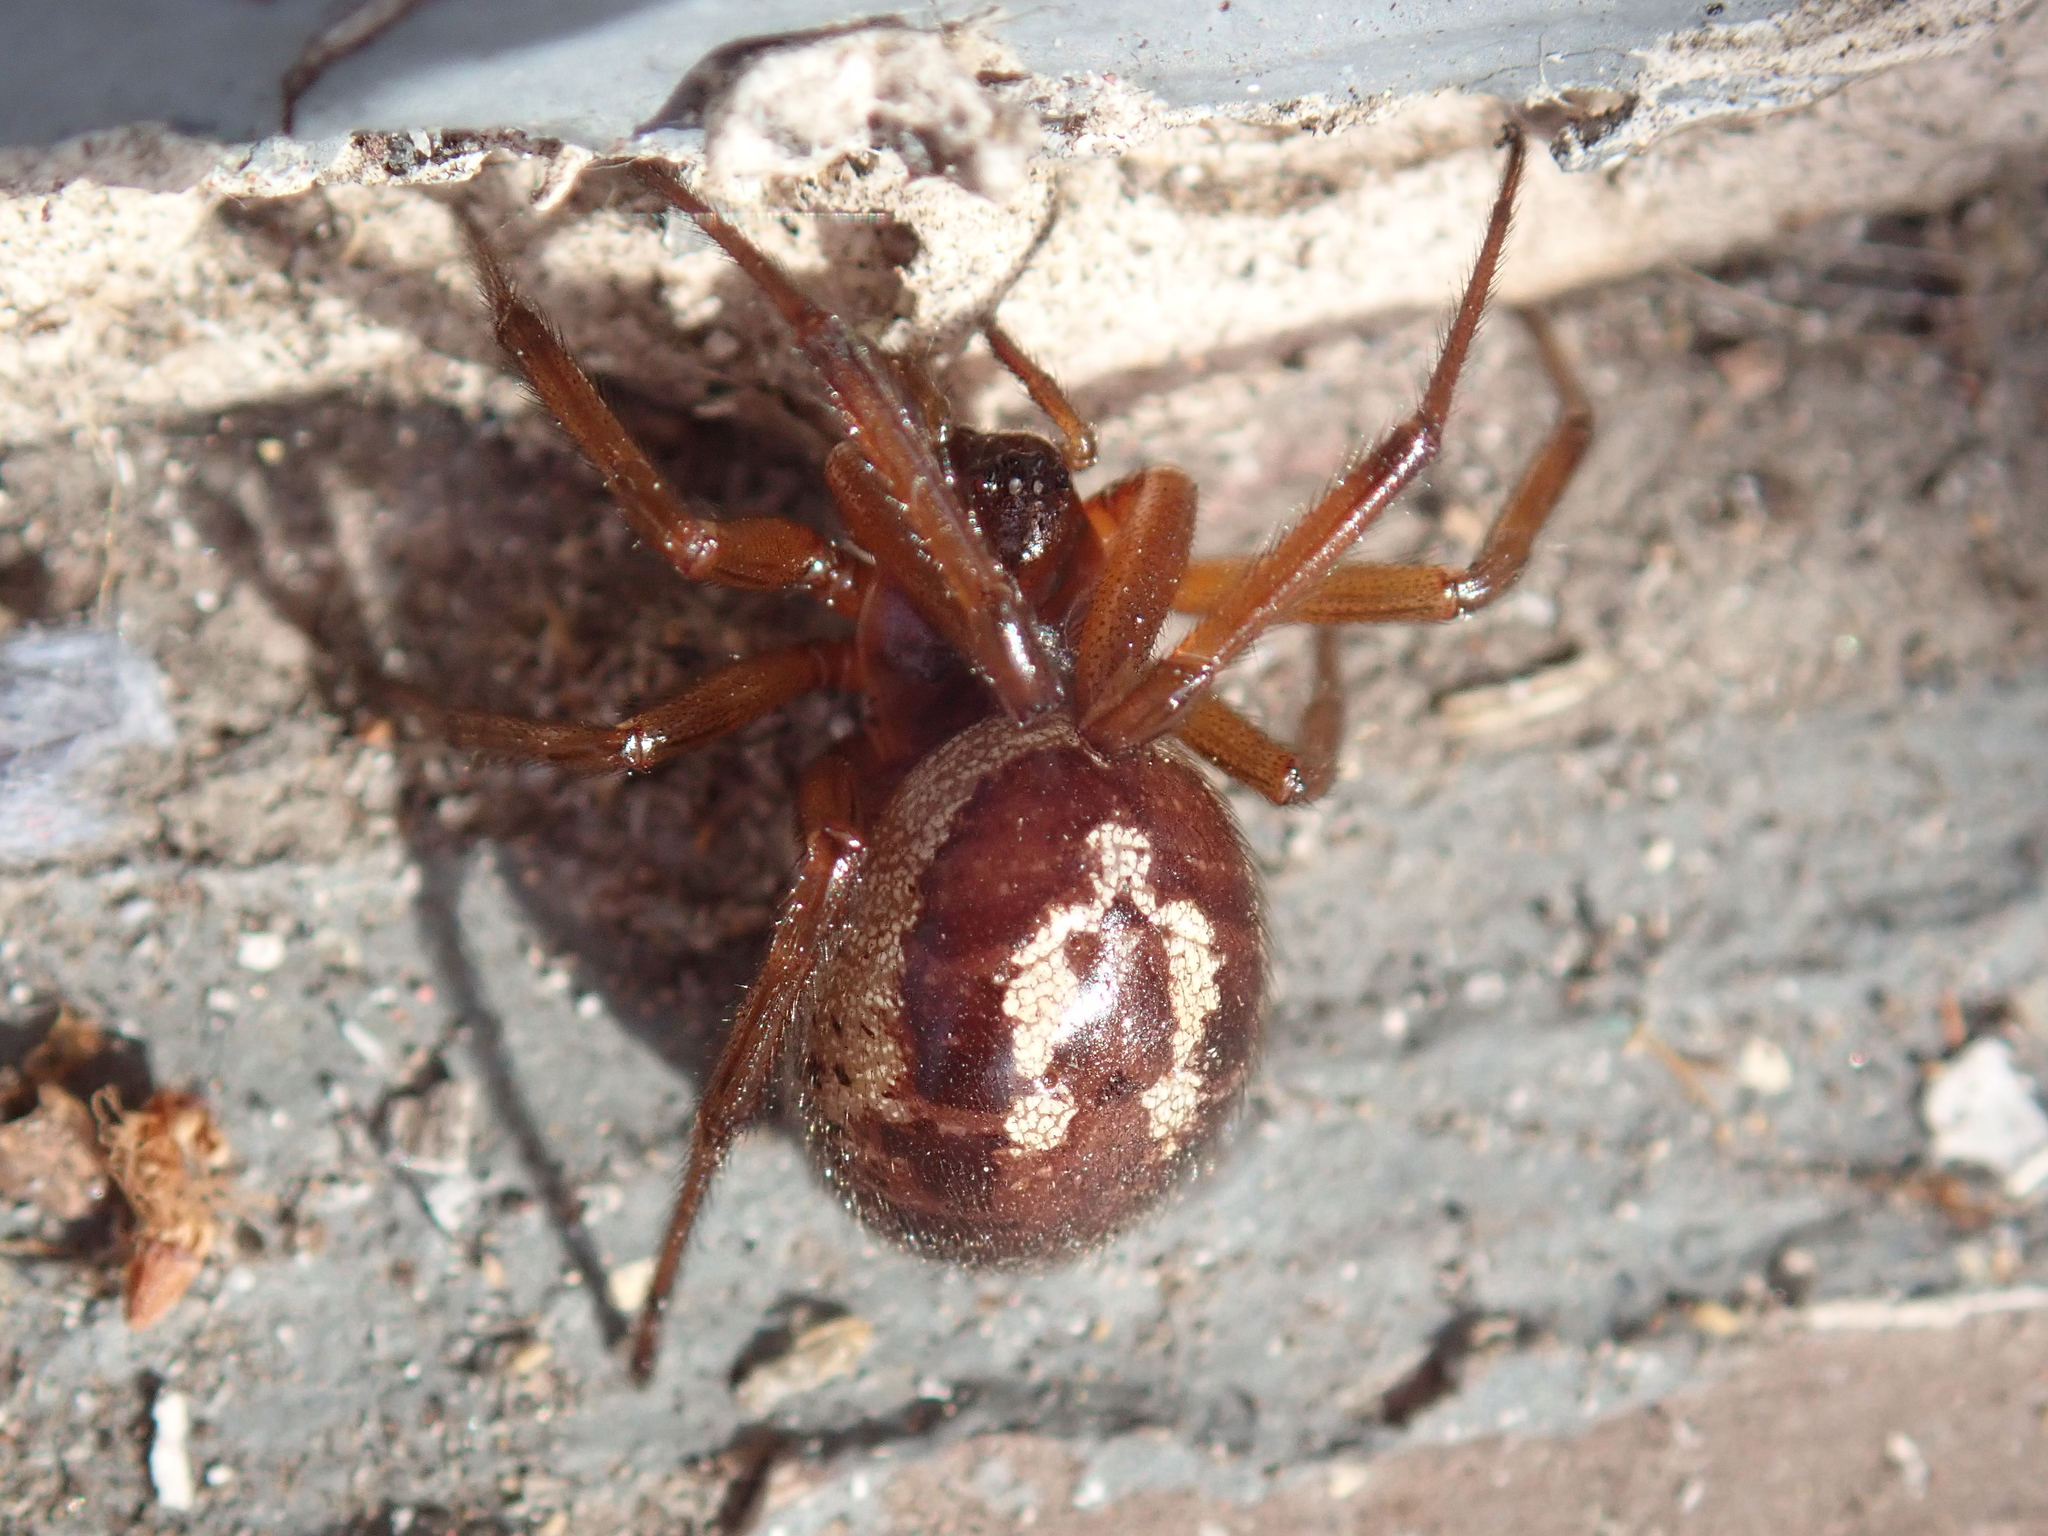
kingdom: Animalia
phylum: Arthropoda
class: Arachnida
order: Araneae
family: Theridiidae
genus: Steatoda
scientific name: Steatoda nobilis
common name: Cobweb weaver
